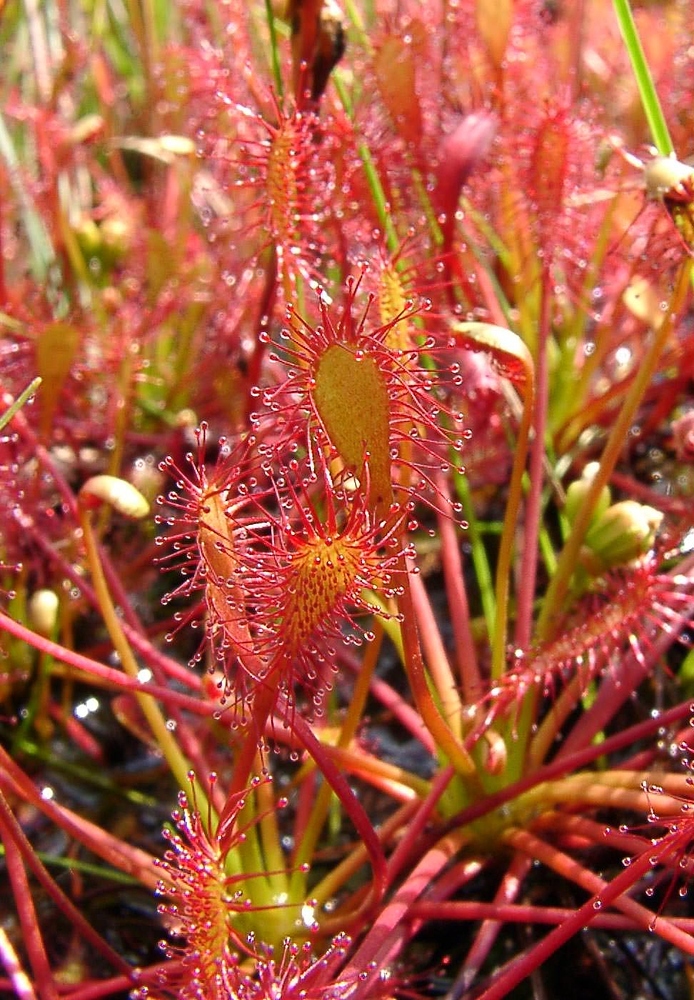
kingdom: Plantae
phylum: Tracheophyta
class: Magnoliopsida
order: Caryophyllales
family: Droseraceae
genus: Drosera
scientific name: Drosera intermedia
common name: Oblong-leaved sundew
